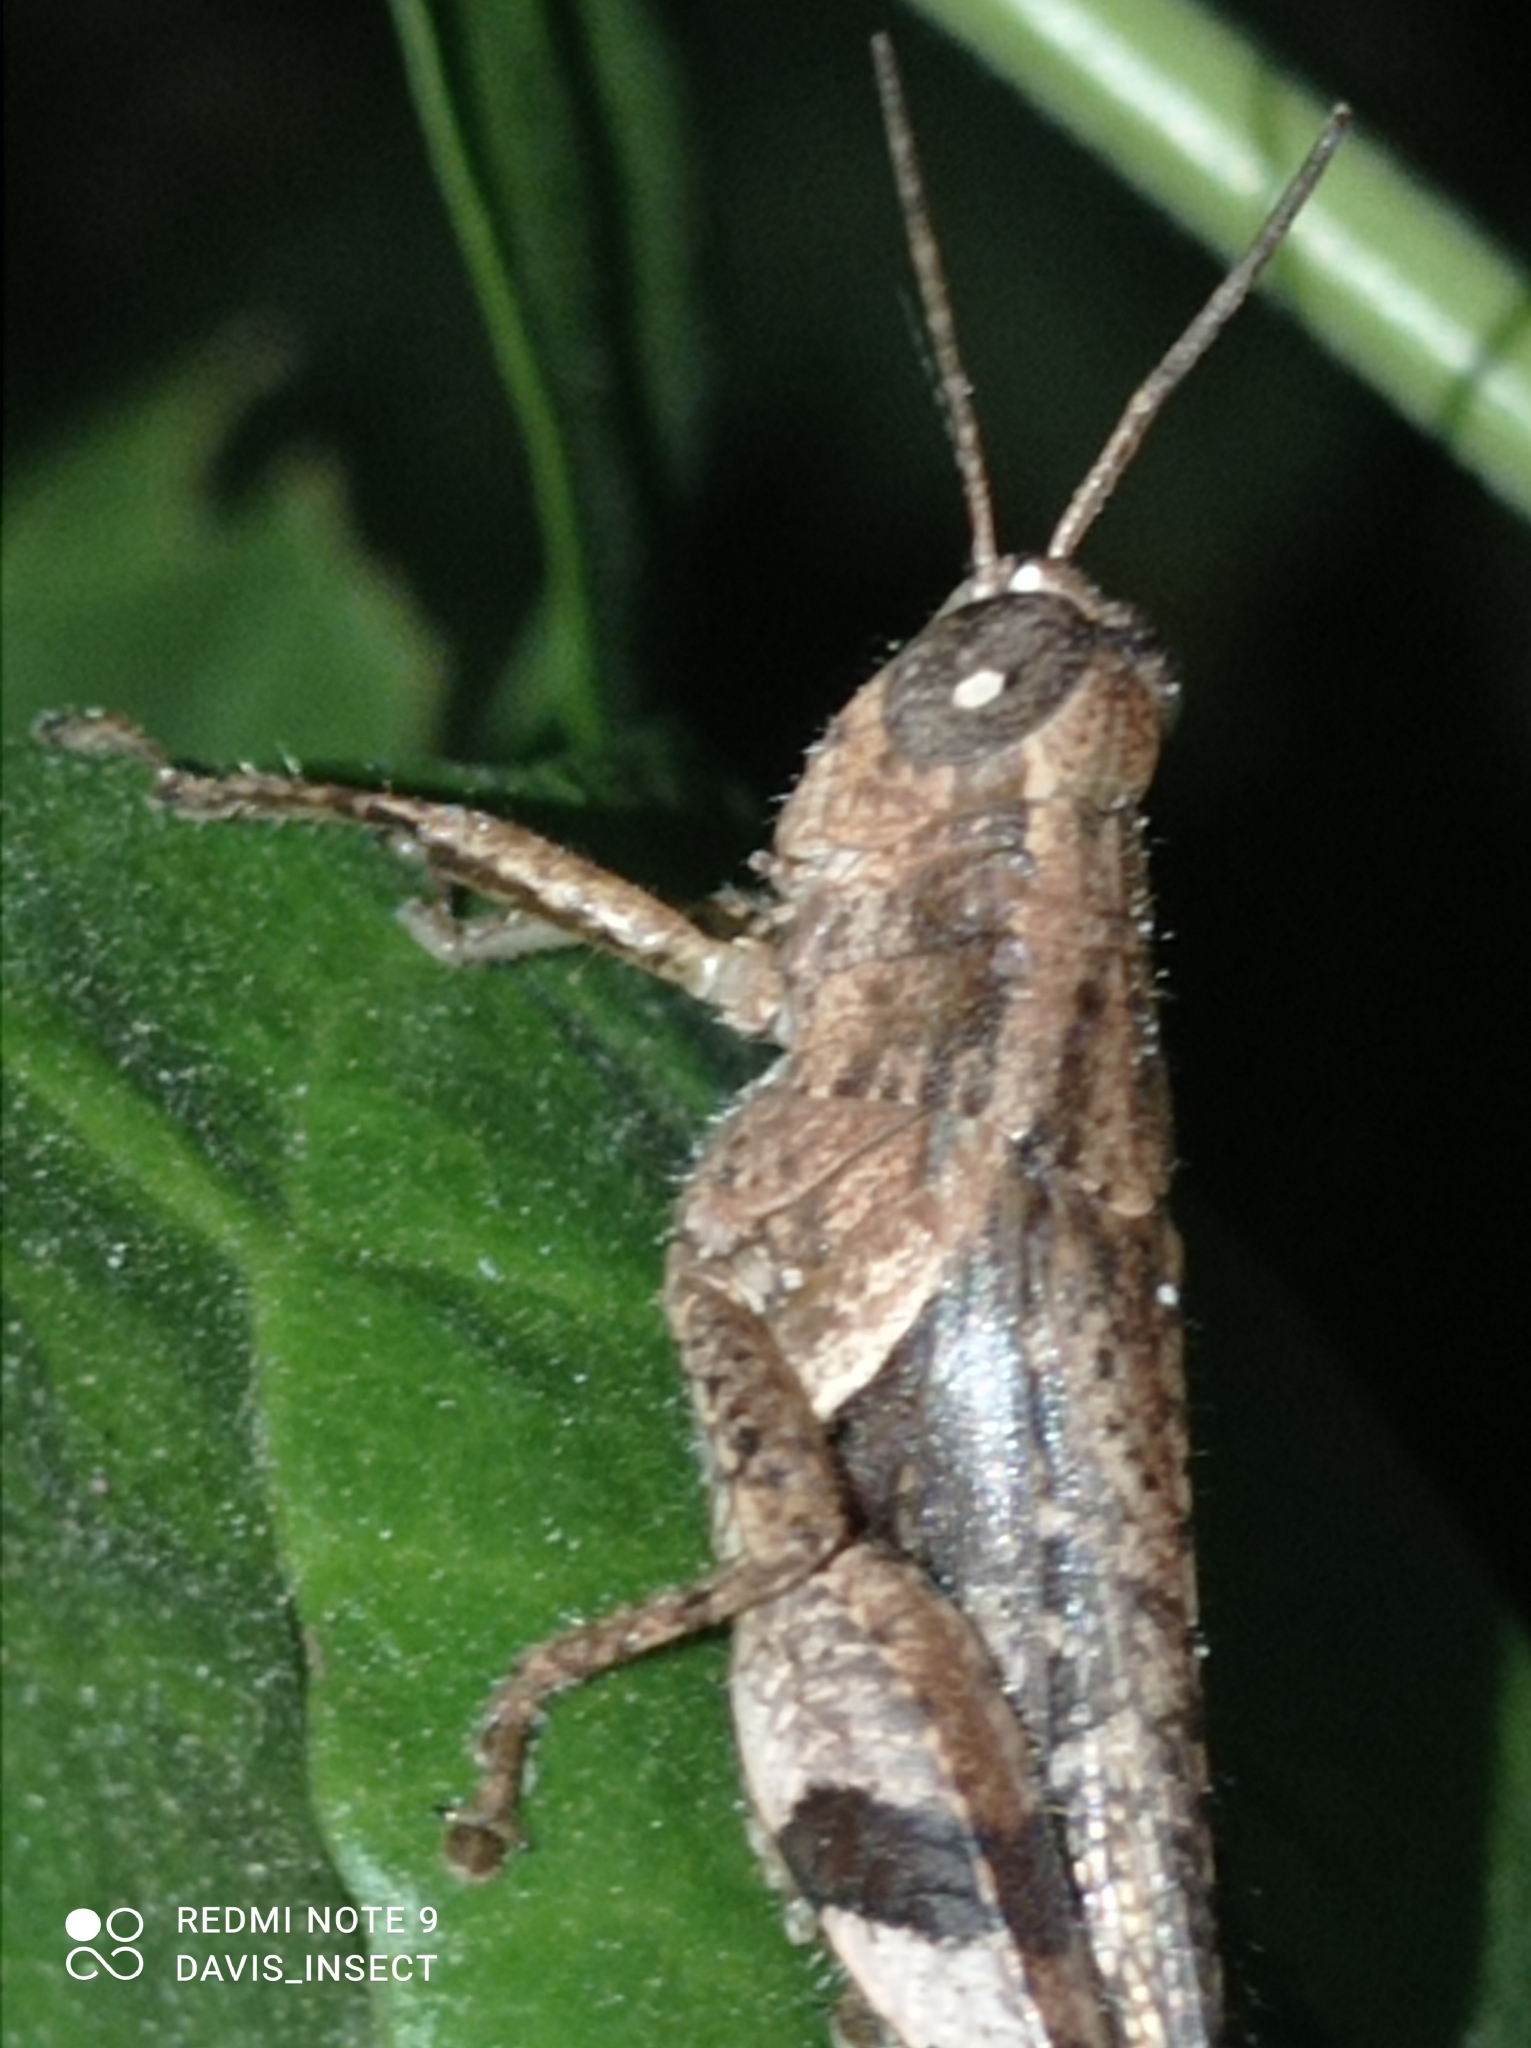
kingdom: Animalia
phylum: Arthropoda
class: Insecta
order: Orthoptera
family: Acrididae
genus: Xenocatantops
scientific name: Xenocatantops dirshi
